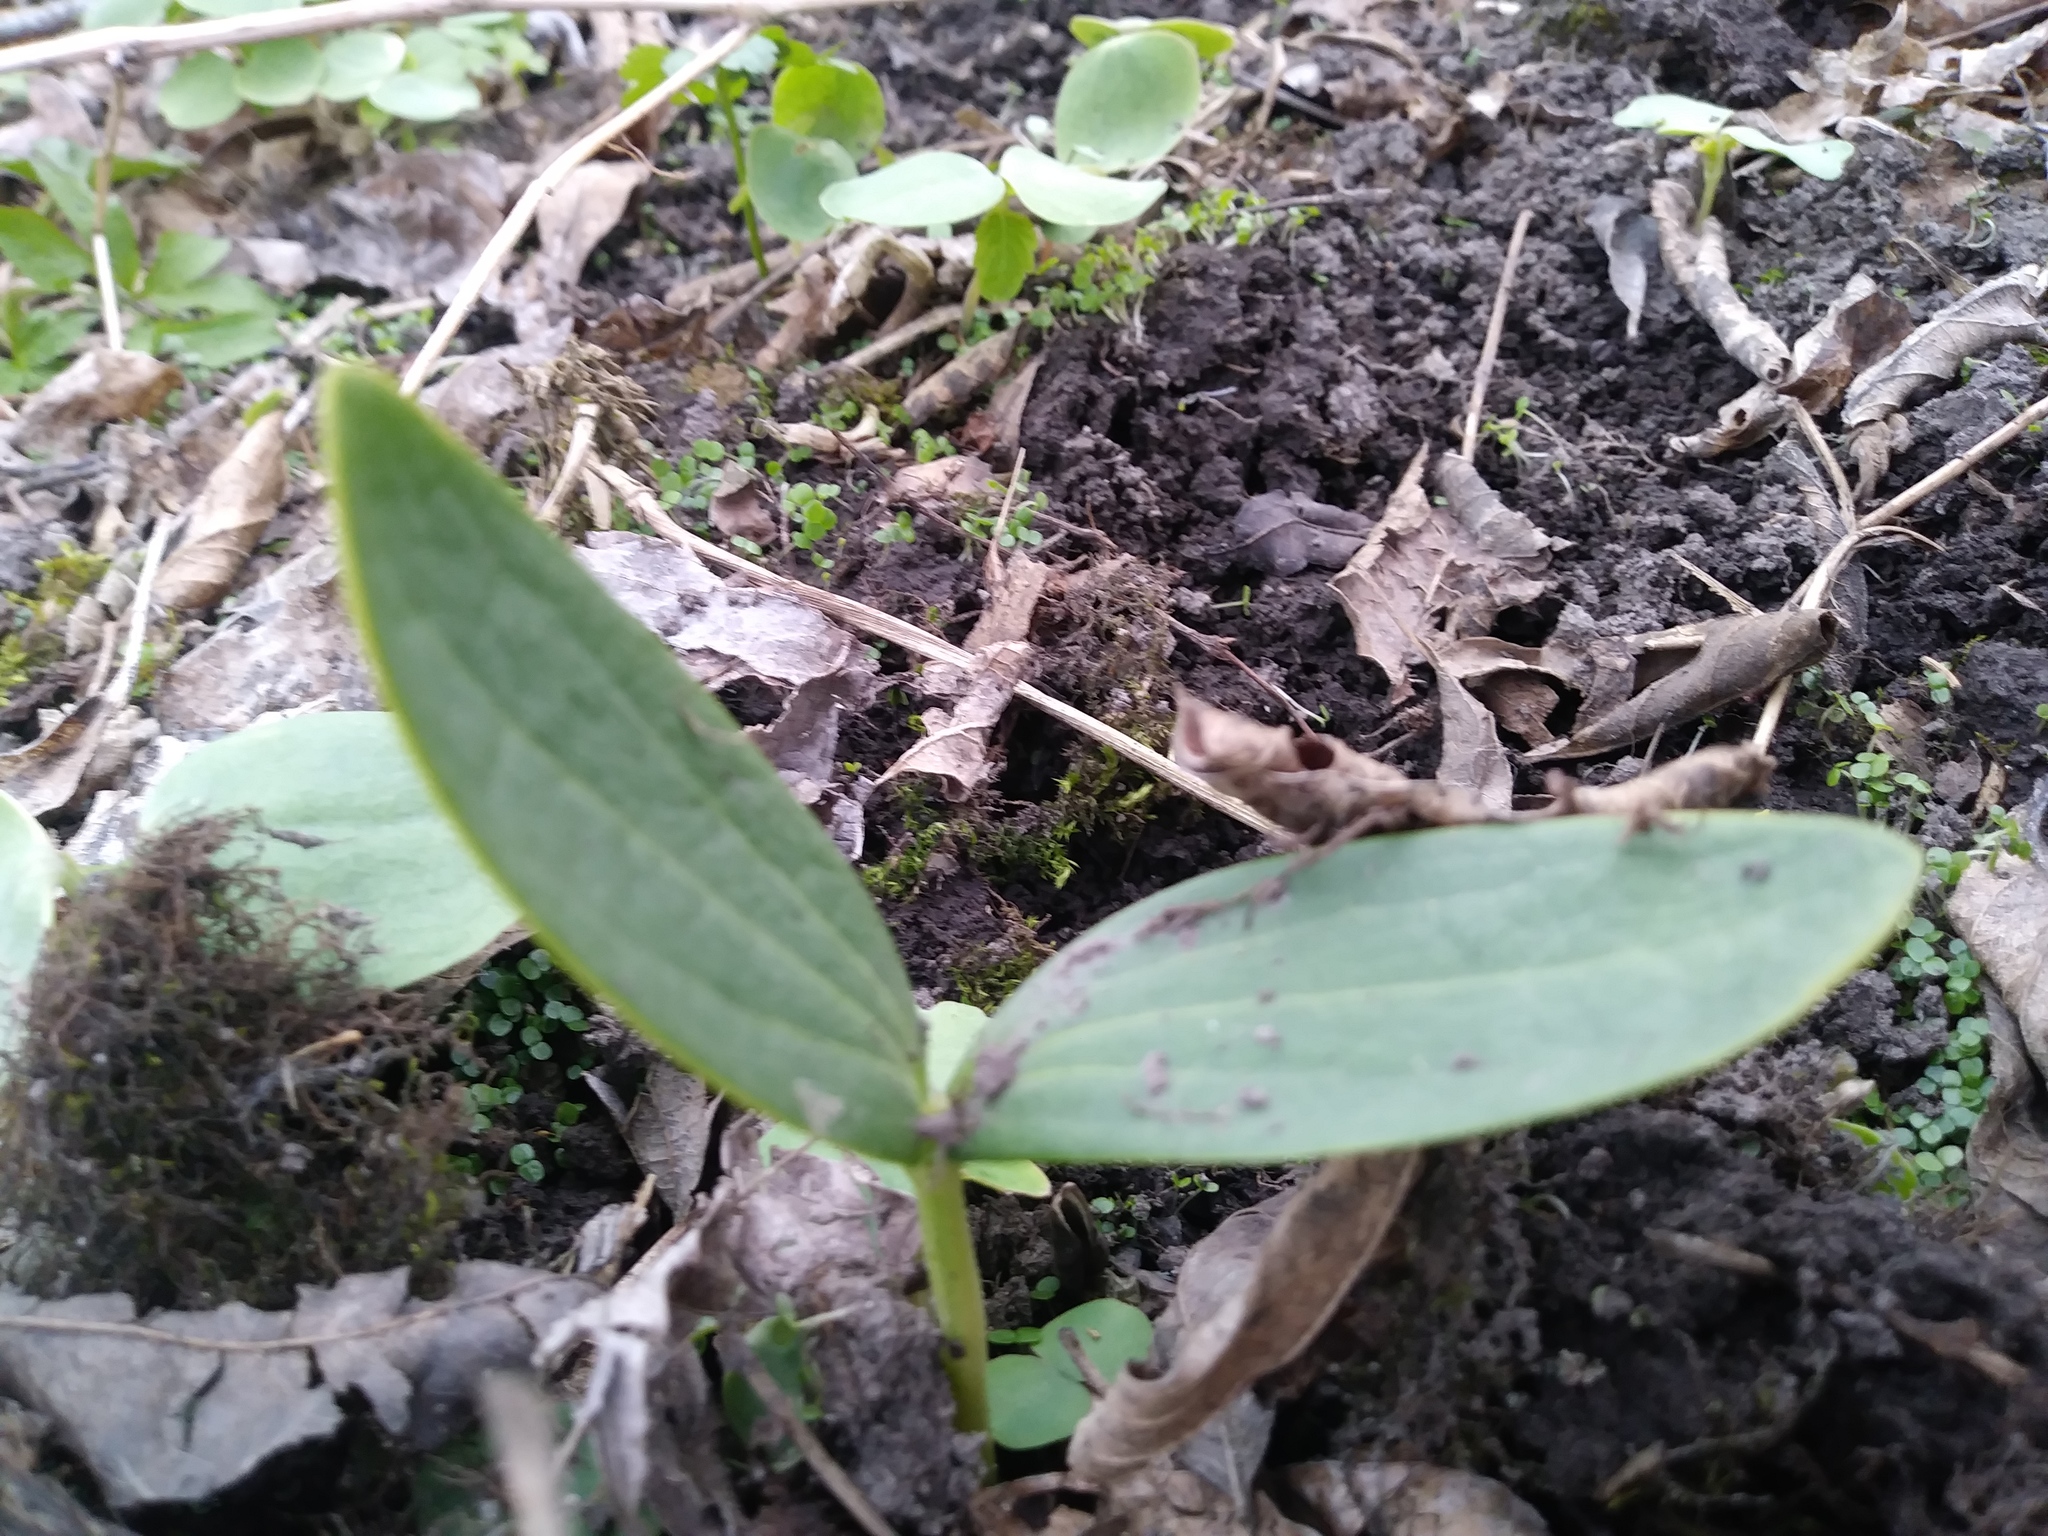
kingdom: Plantae
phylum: Tracheophyta
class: Magnoliopsida
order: Cucurbitales
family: Cucurbitaceae
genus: Echinocystis
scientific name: Echinocystis lobata
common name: Wild cucumber
